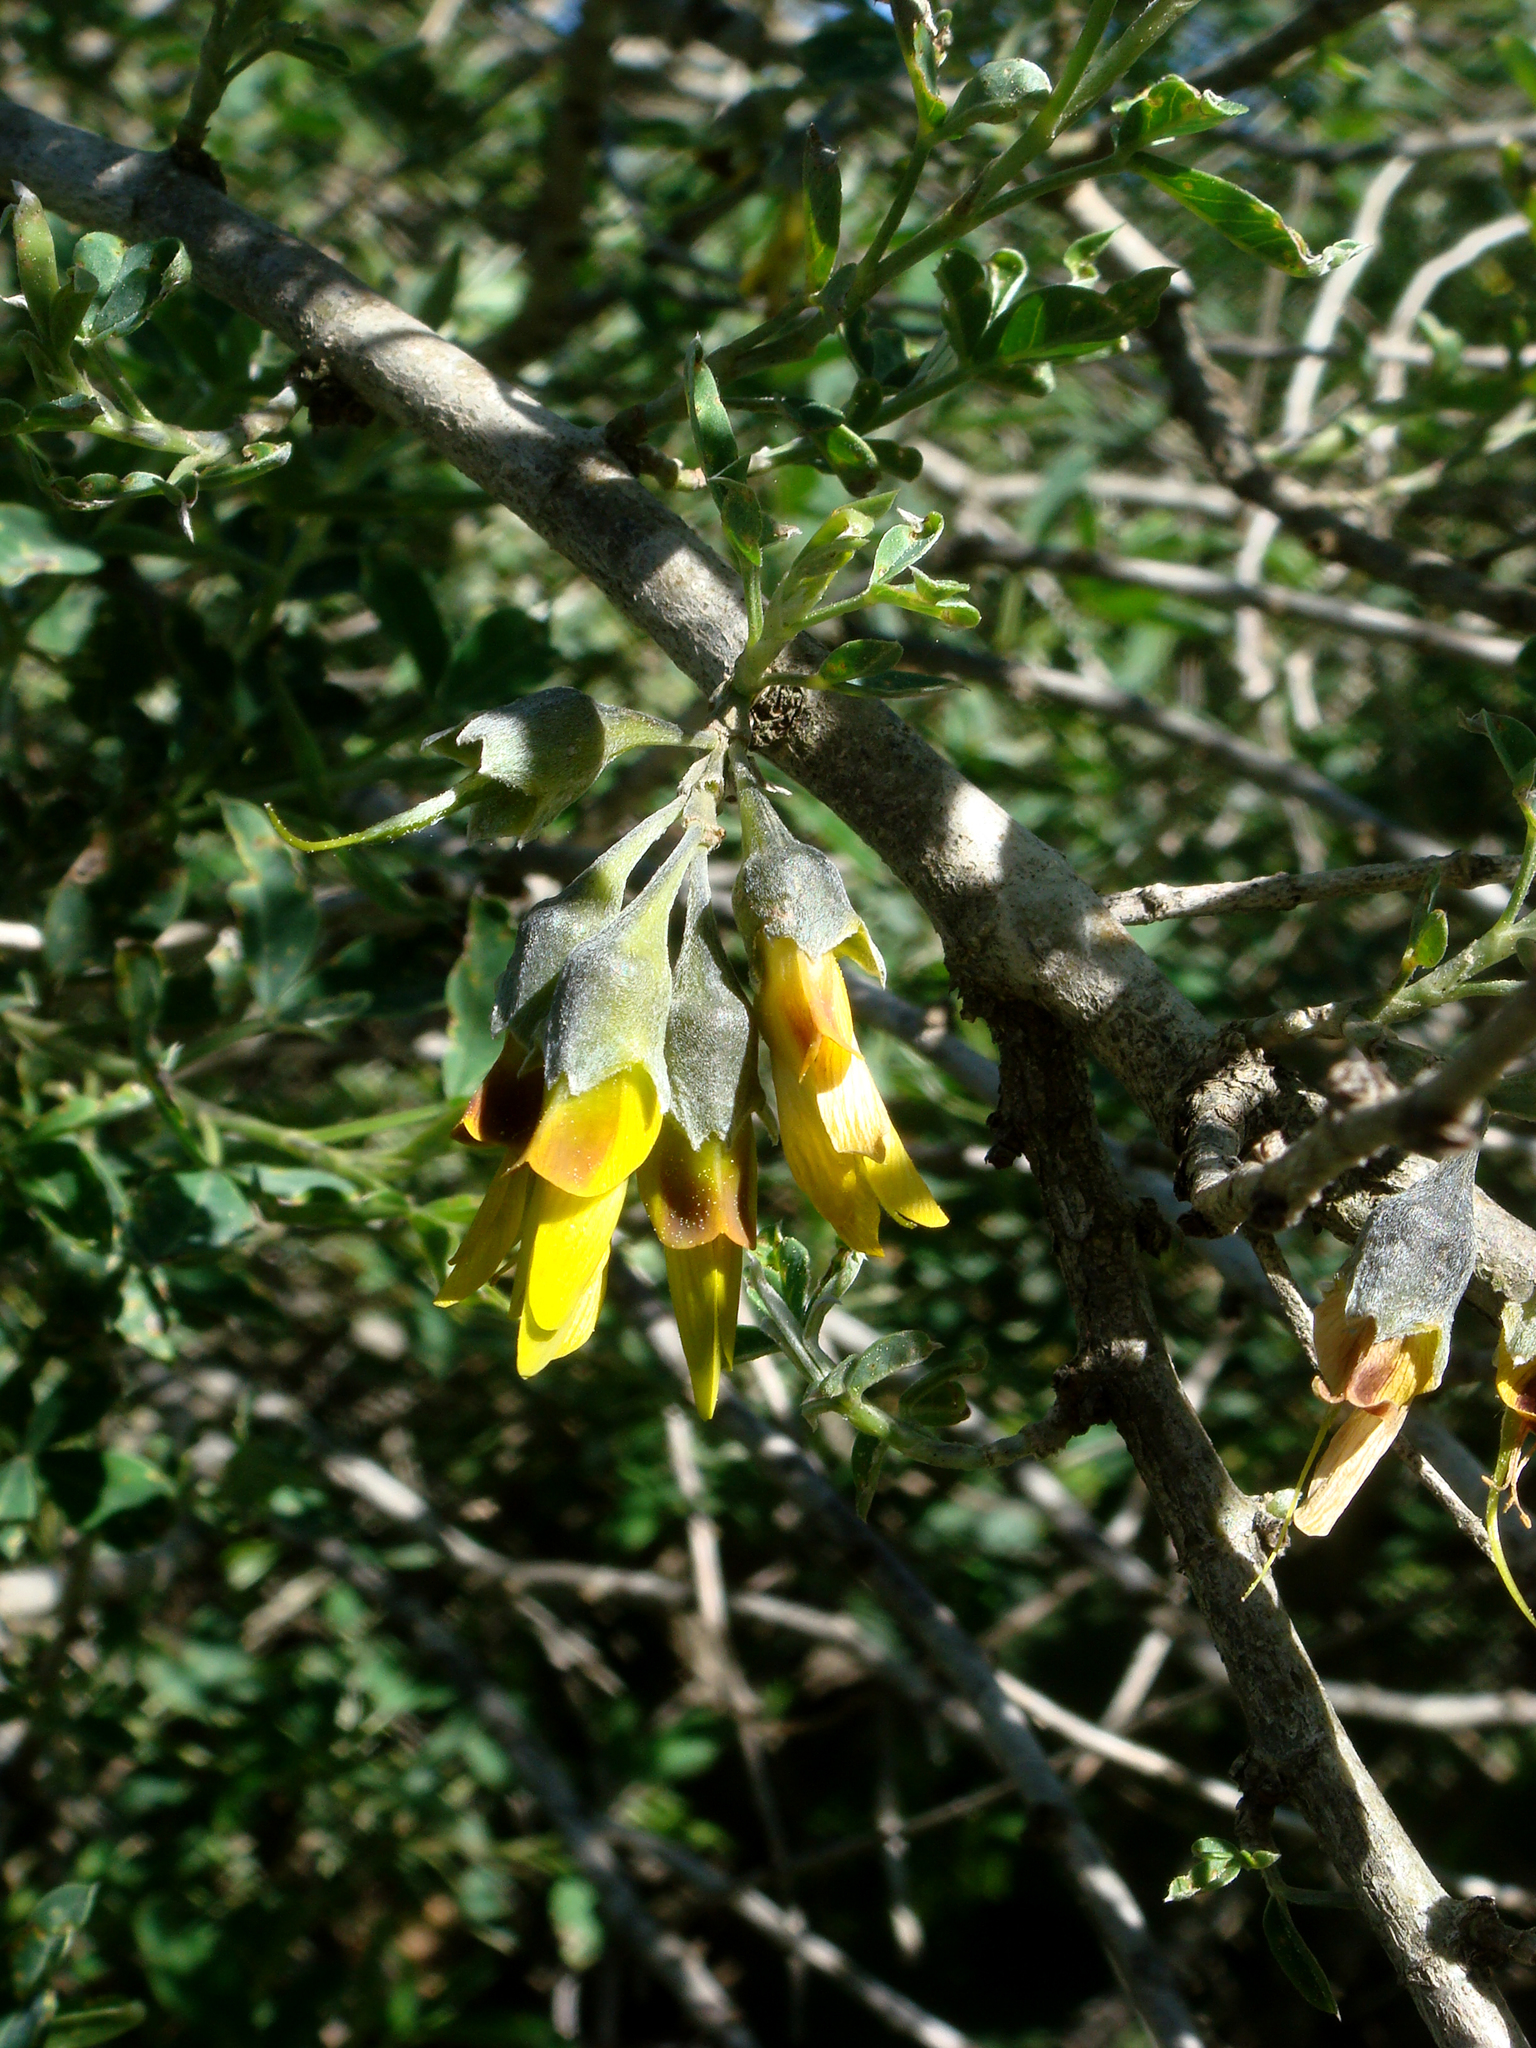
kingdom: Plantae
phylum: Tracheophyta
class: Magnoliopsida
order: Fabales
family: Fabaceae
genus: Anagyris
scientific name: Anagyris foetida
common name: Stinking bean trefoil
